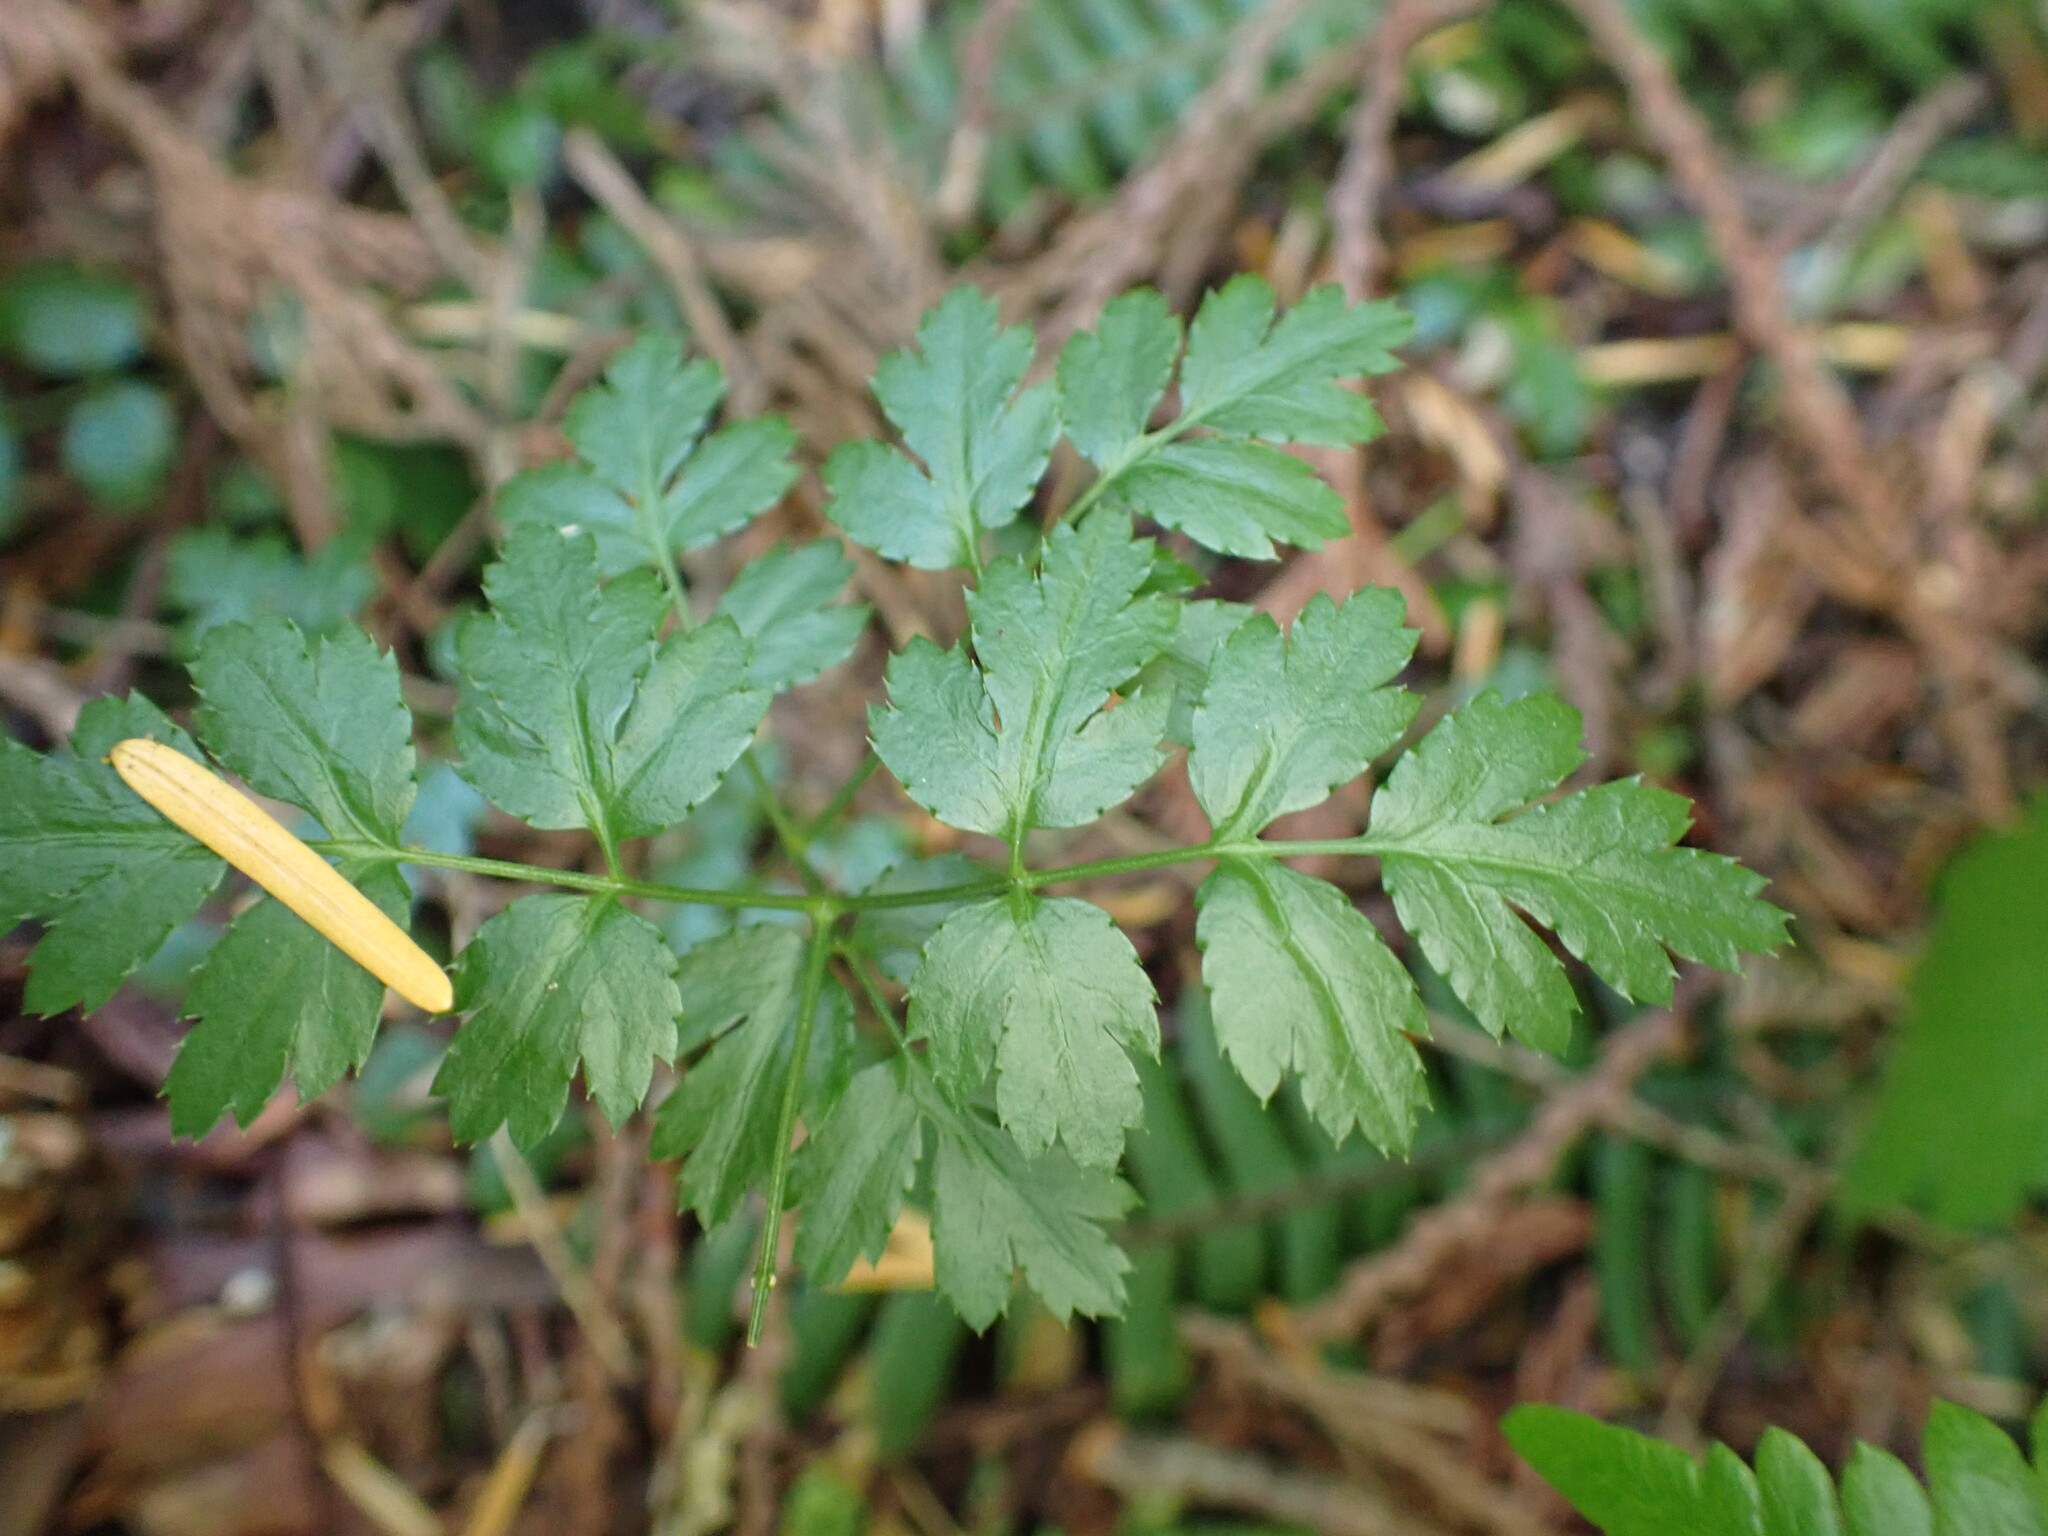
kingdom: Plantae
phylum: Tracheophyta
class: Magnoliopsida
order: Ranunculales
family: Ranunculaceae
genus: Coptis
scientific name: Coptis aspleniifolia
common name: Fern-leaved goldthread
